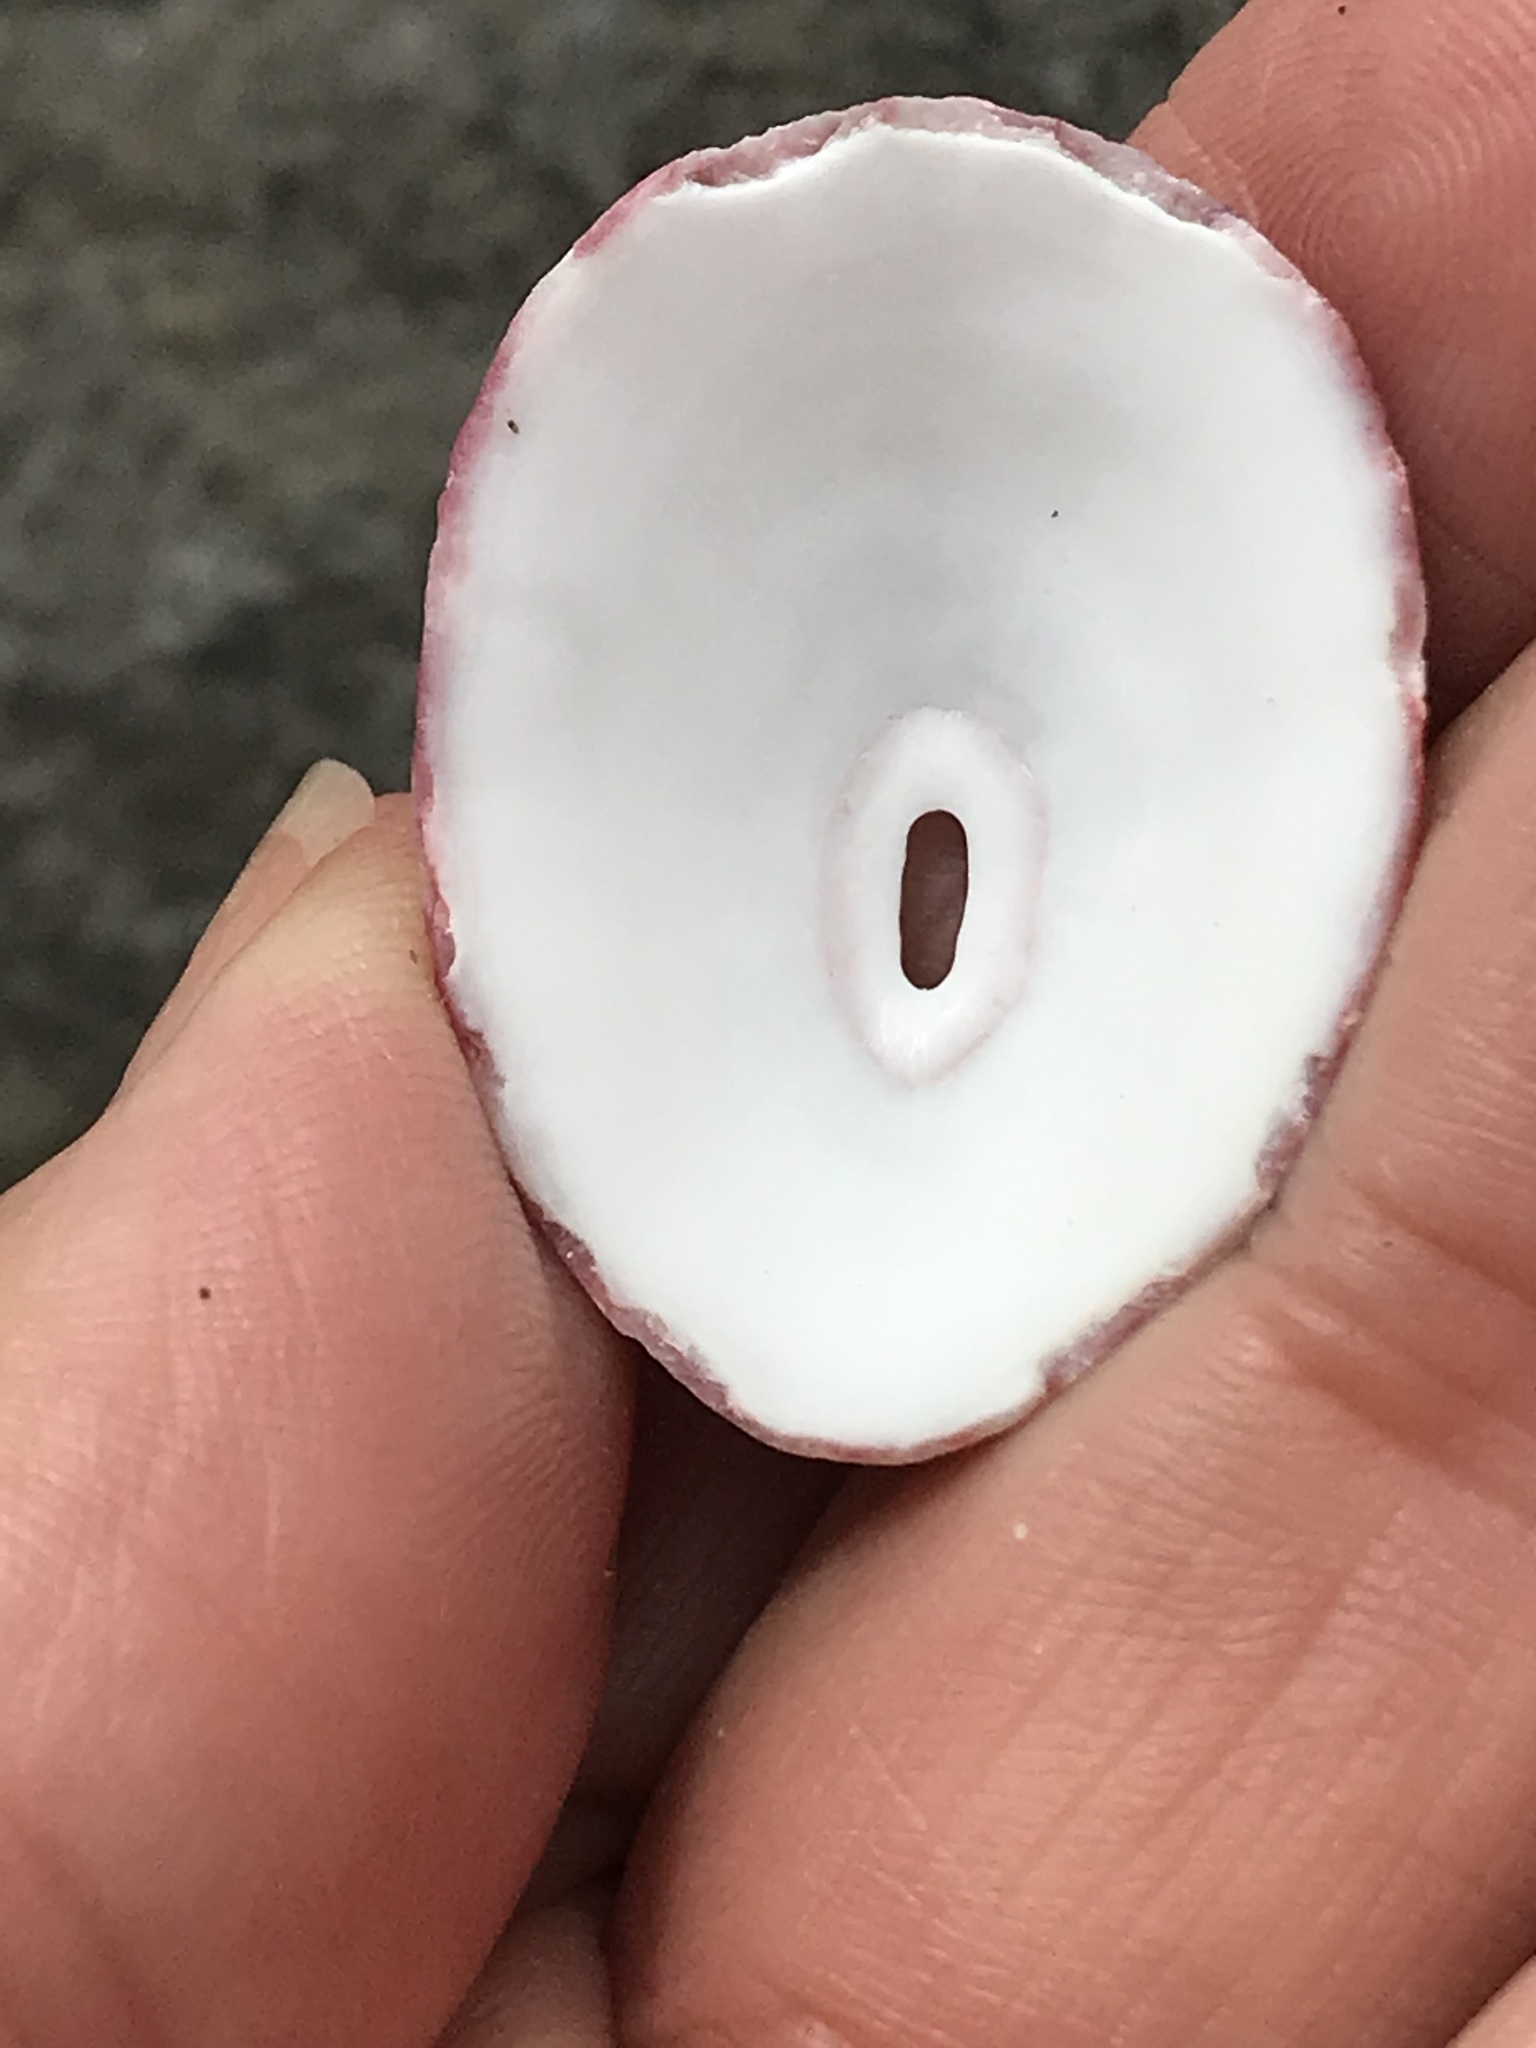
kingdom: Animalia
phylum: Mollusca
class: Gastropoda
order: Lepetellida
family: Fissurellidae
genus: Fissurella
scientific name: Fissurella volcano
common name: Volcano keyhole limpet
